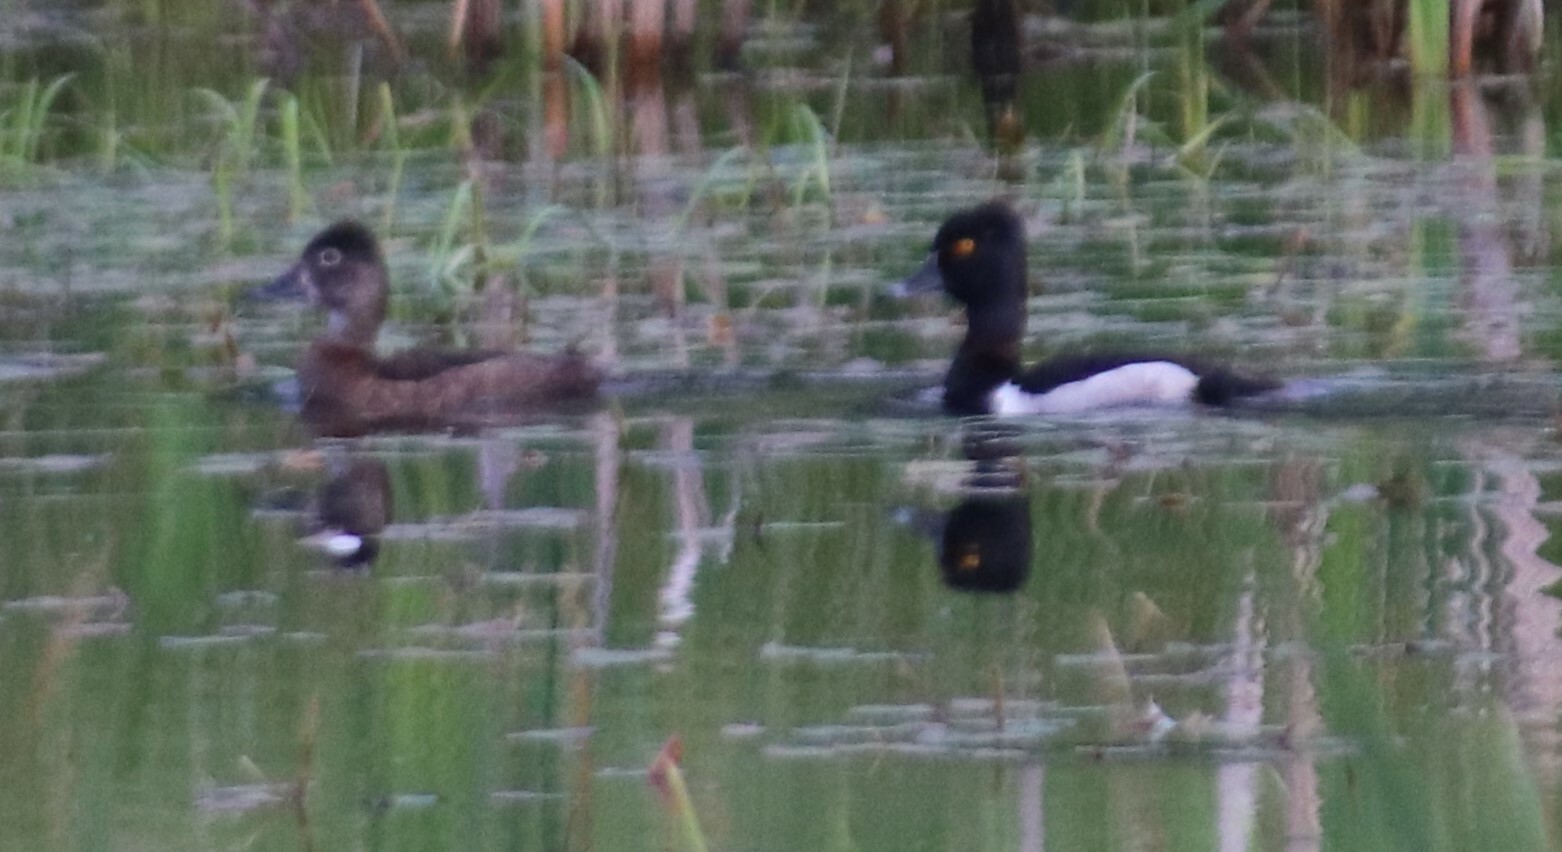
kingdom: Animalia
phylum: Chordata
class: Aves
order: Anseriformes
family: Anatidae
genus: Aythya
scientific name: Aythya collaris
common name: Ring-necked duck
